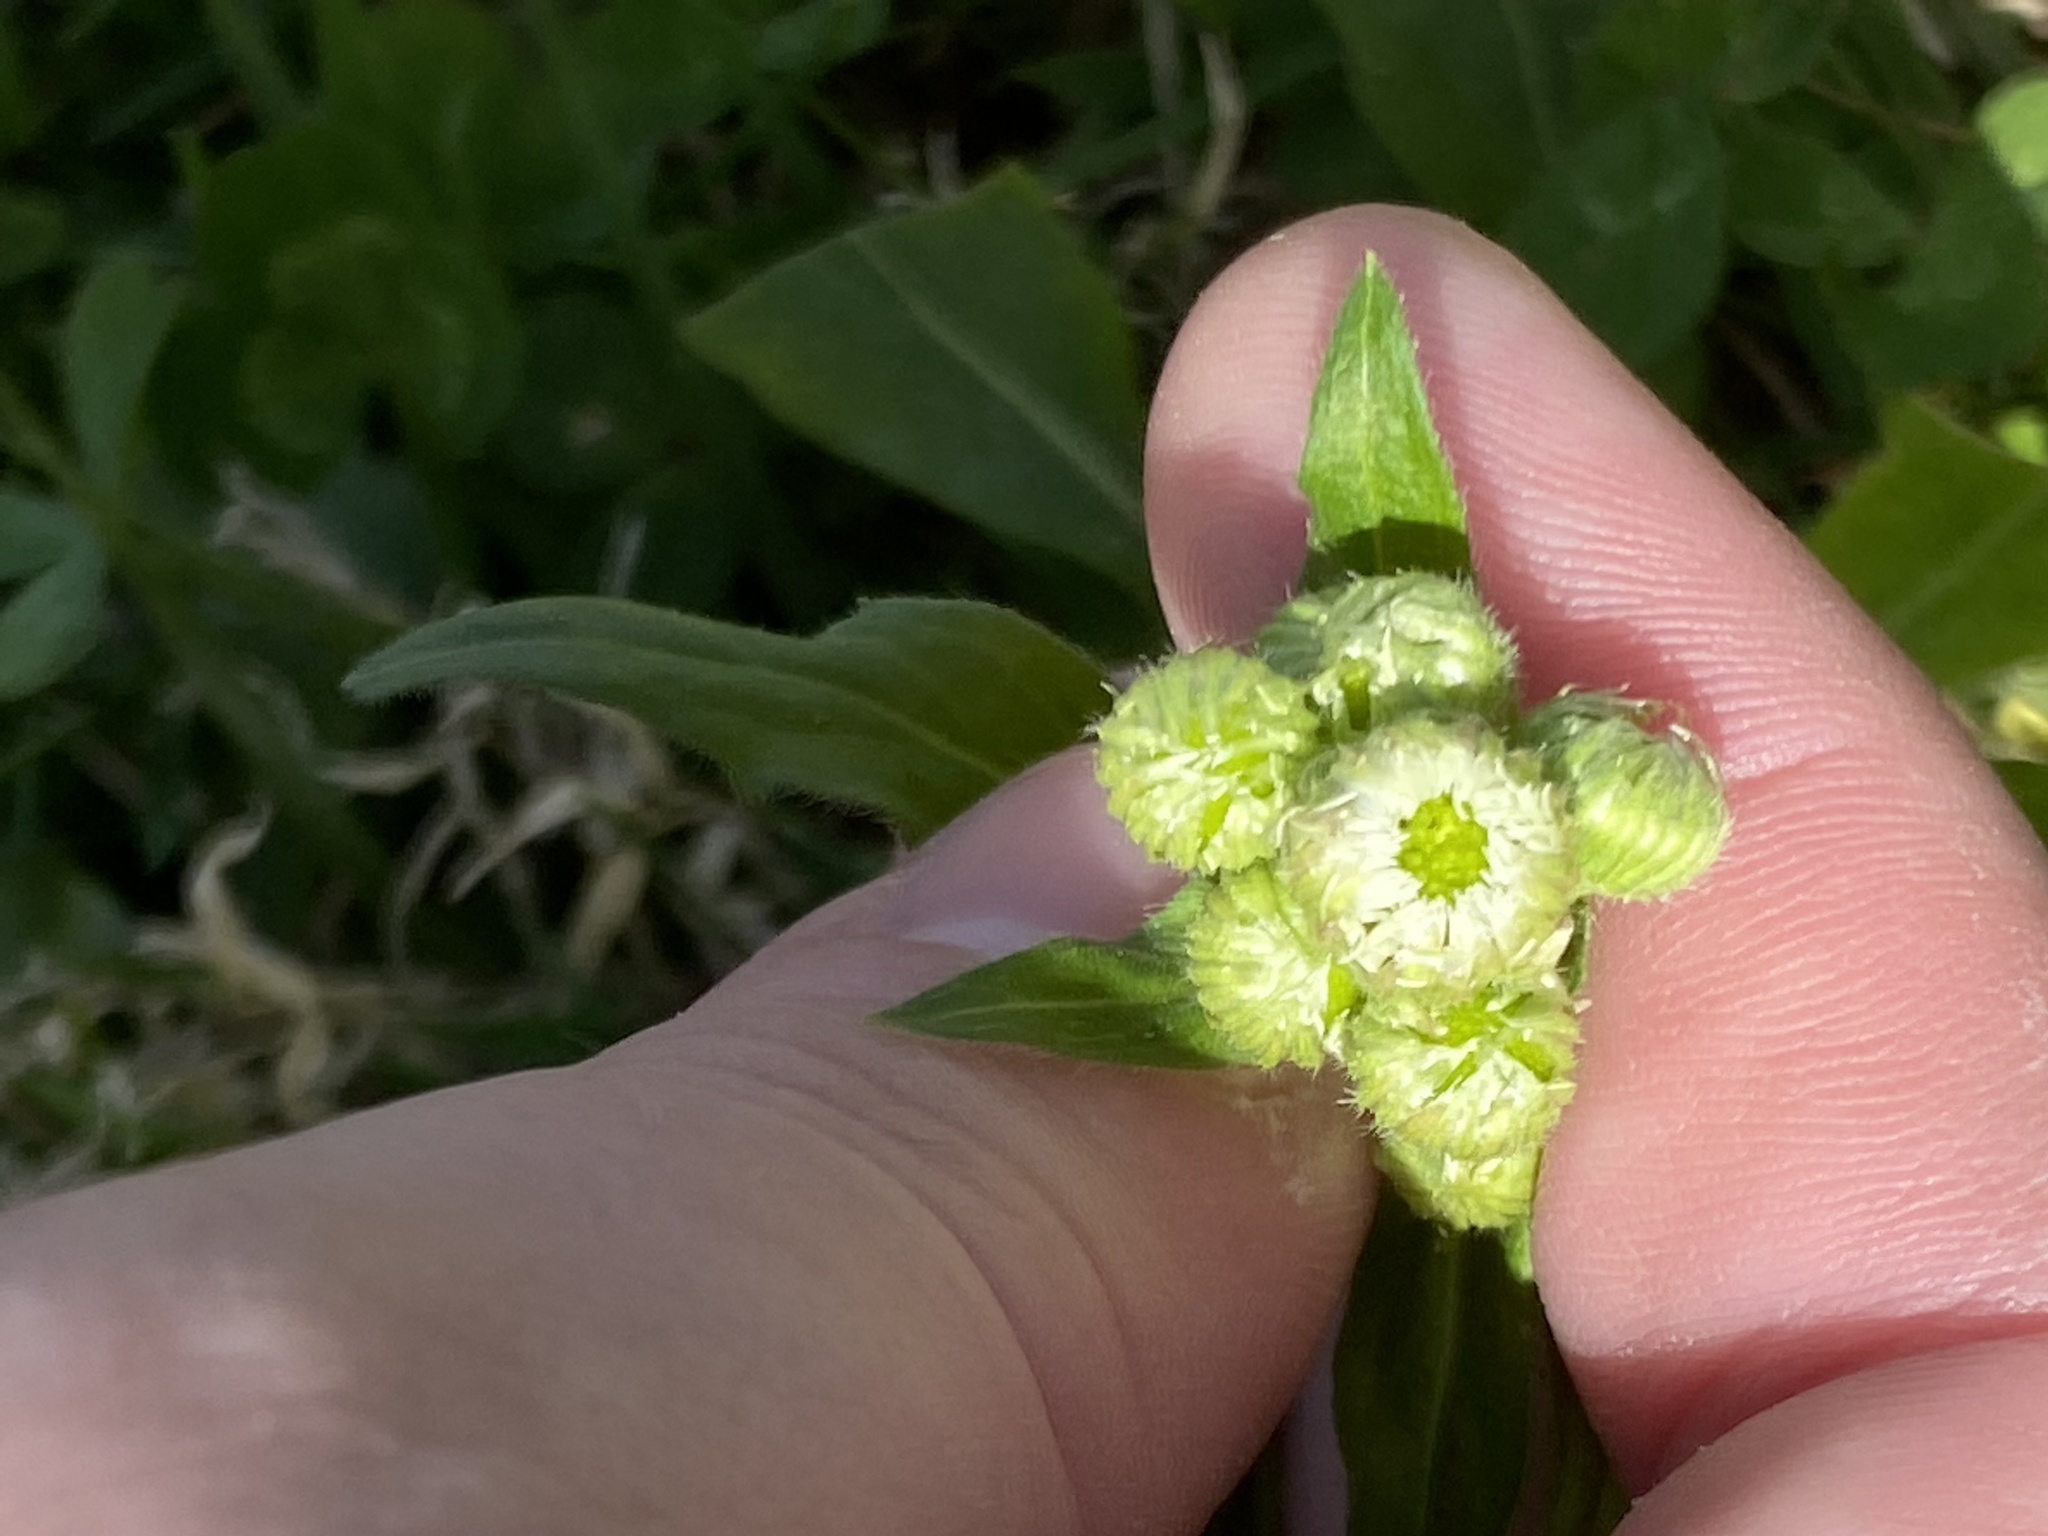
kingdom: Plantae
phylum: Tracheophyta
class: Magnoliopsida
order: Asterales
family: Asteraceae
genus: Erigeron
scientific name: Erigeron philadelphicus
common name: Robin's-plantain
